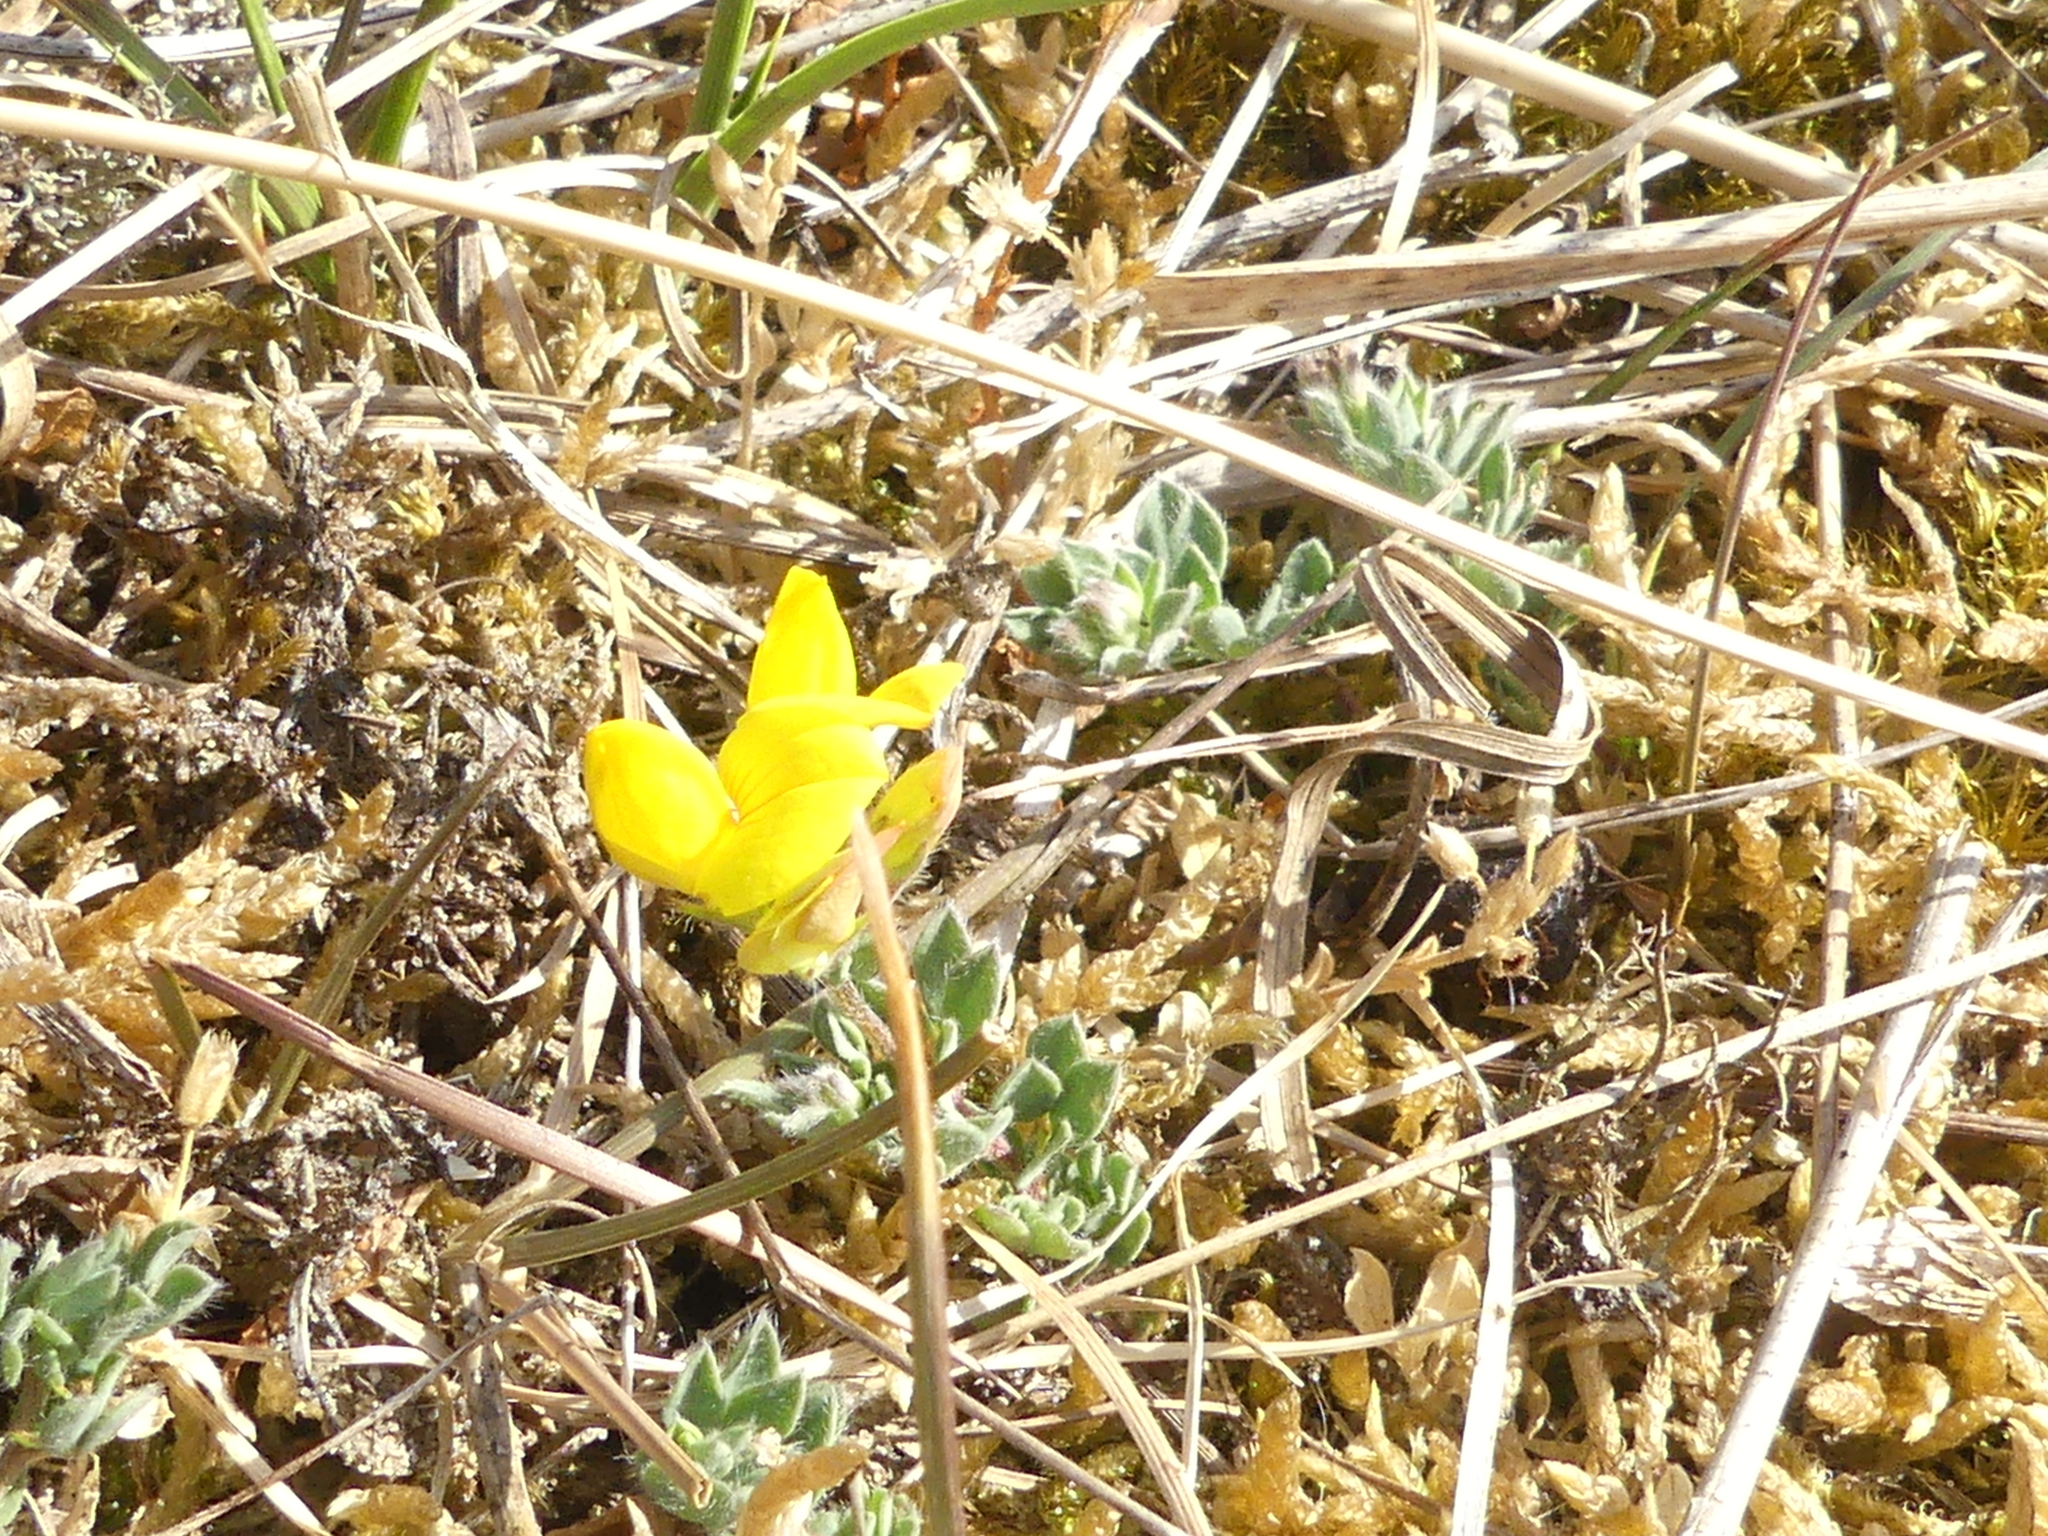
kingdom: Plantae
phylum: Tracheophyta
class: Magnoliopsida
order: Fabales
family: Fabaceae
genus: Lotus
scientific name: Lotus corniculatus
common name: Common bird's-foot-trefoil
